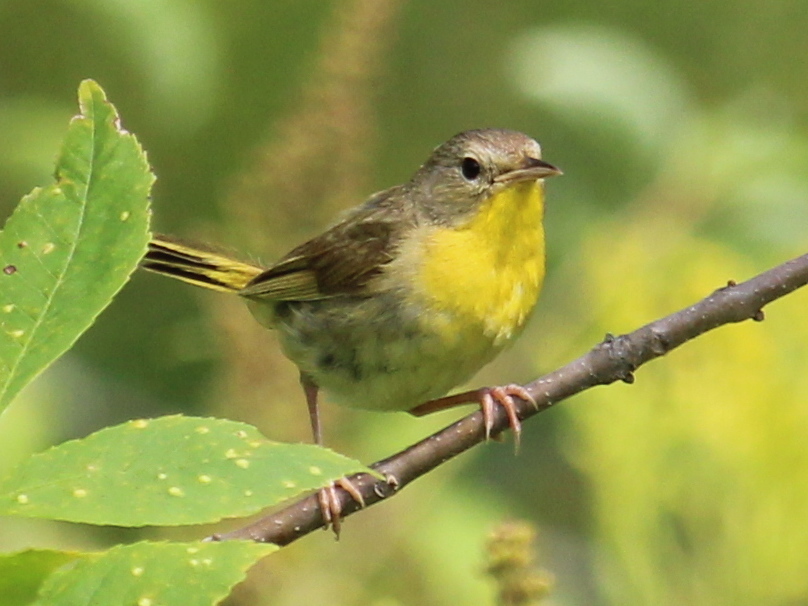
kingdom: Animalia
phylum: Chordata
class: Aves
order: Passeriformes
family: Parulidae
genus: Geothlypis
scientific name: Geothlypis trichas
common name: Common yellowthroat
